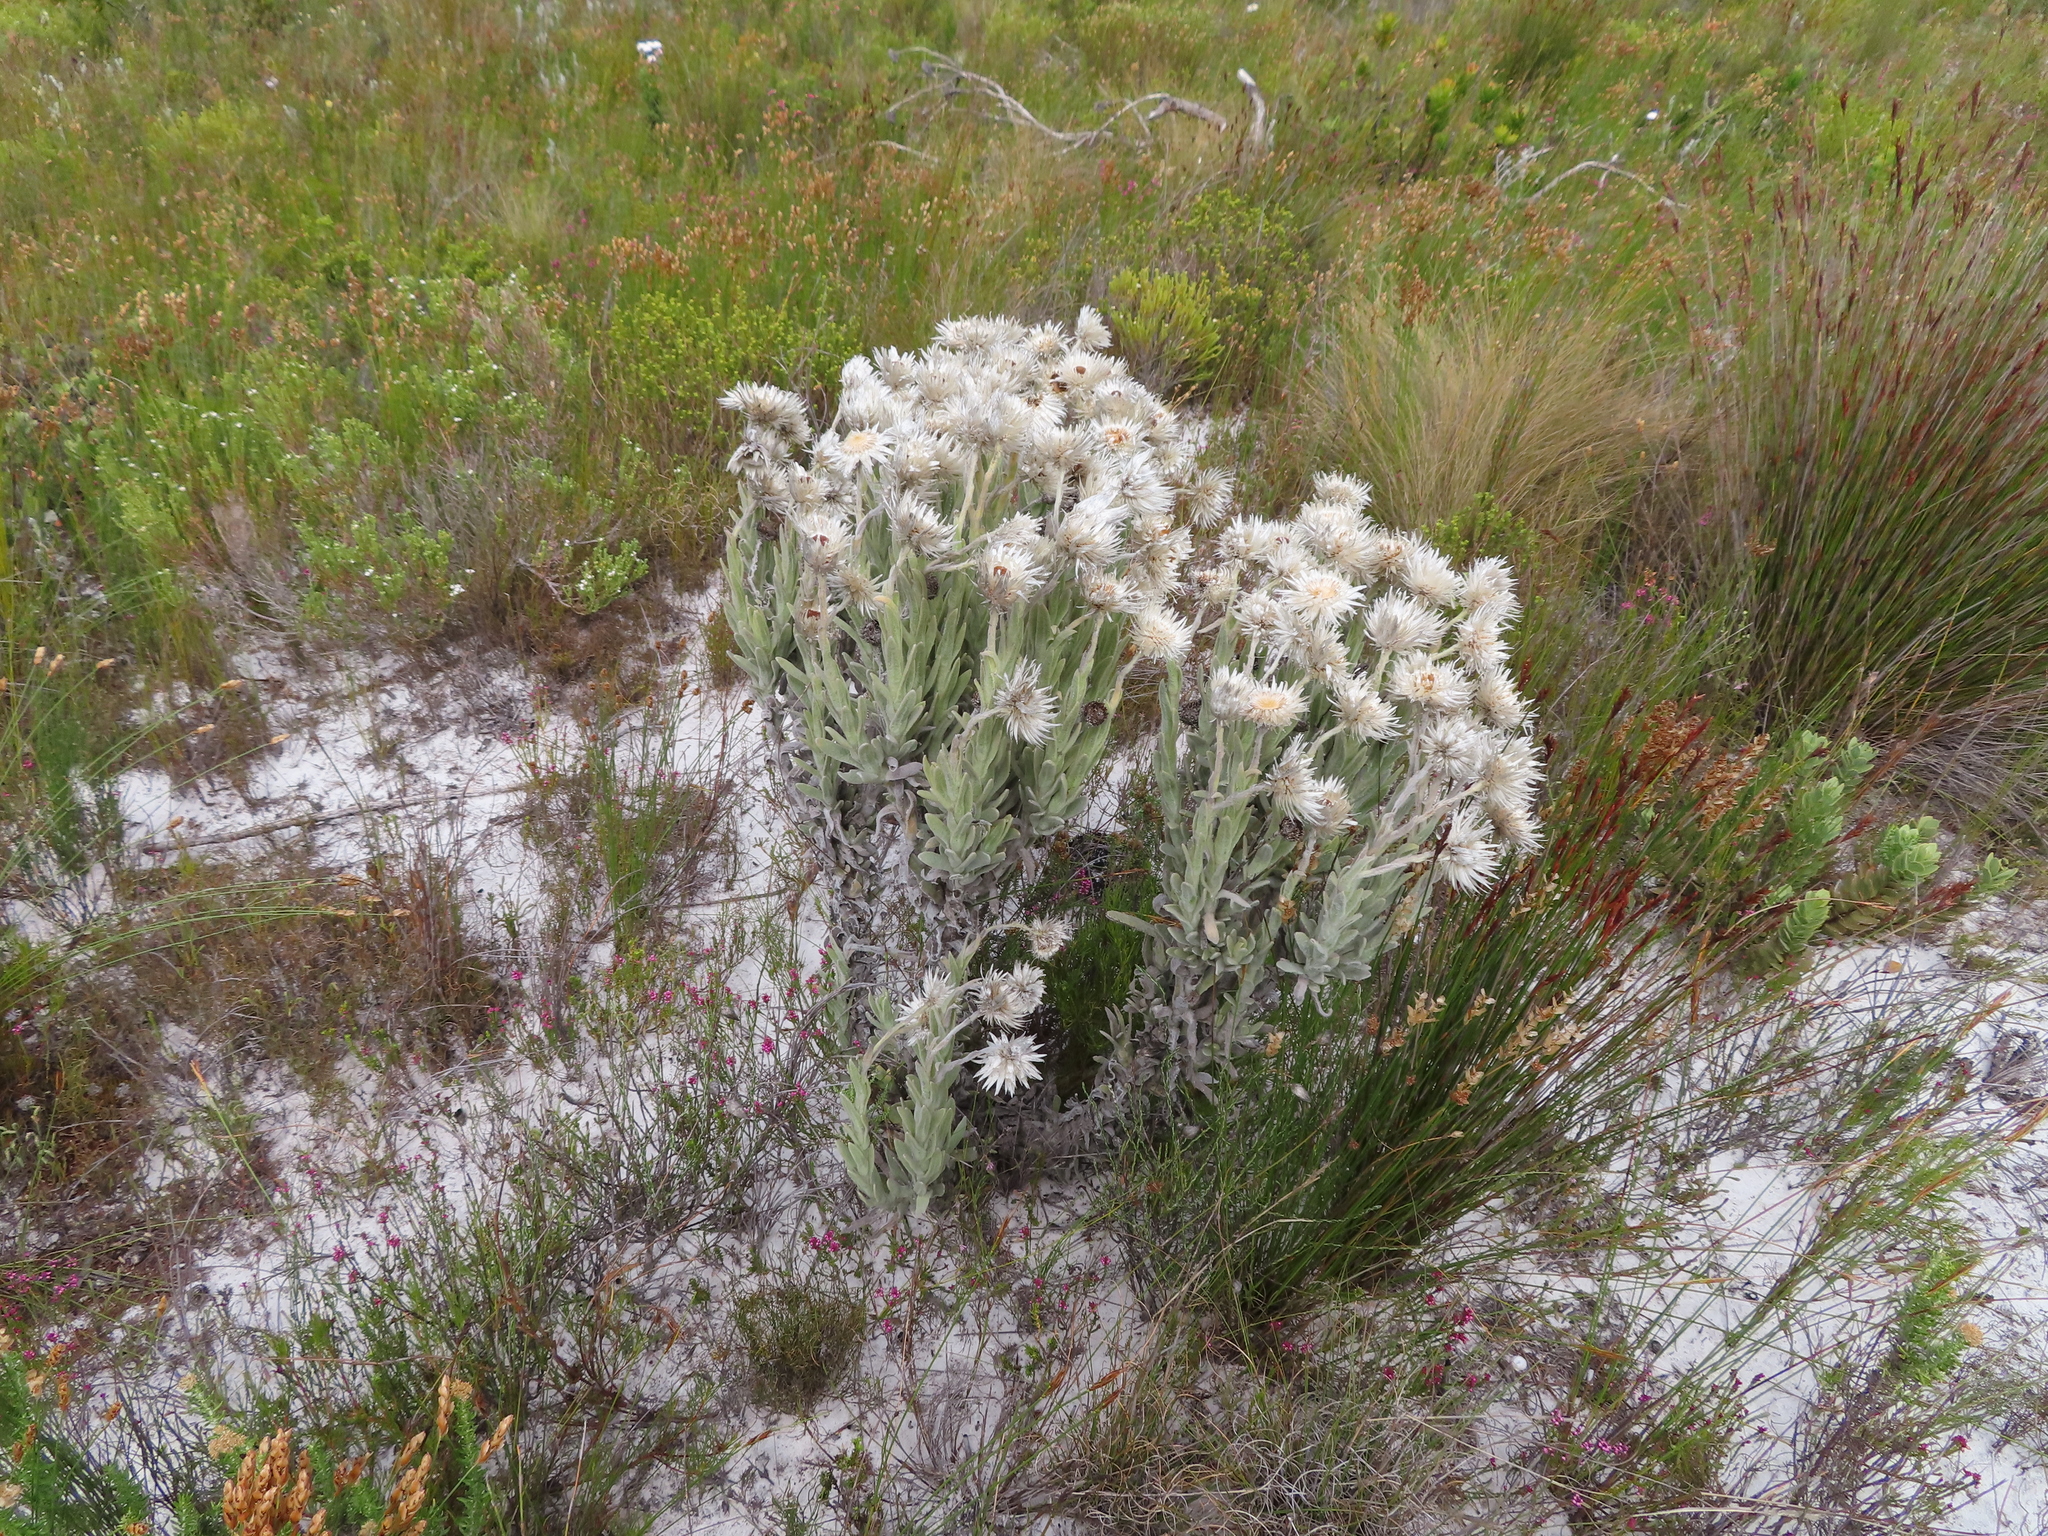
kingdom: Plantae
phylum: Tracheophyta
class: Magnoliopsida
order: Asterales
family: Asteraceae
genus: Syncarpha
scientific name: Syncarpha vestita
